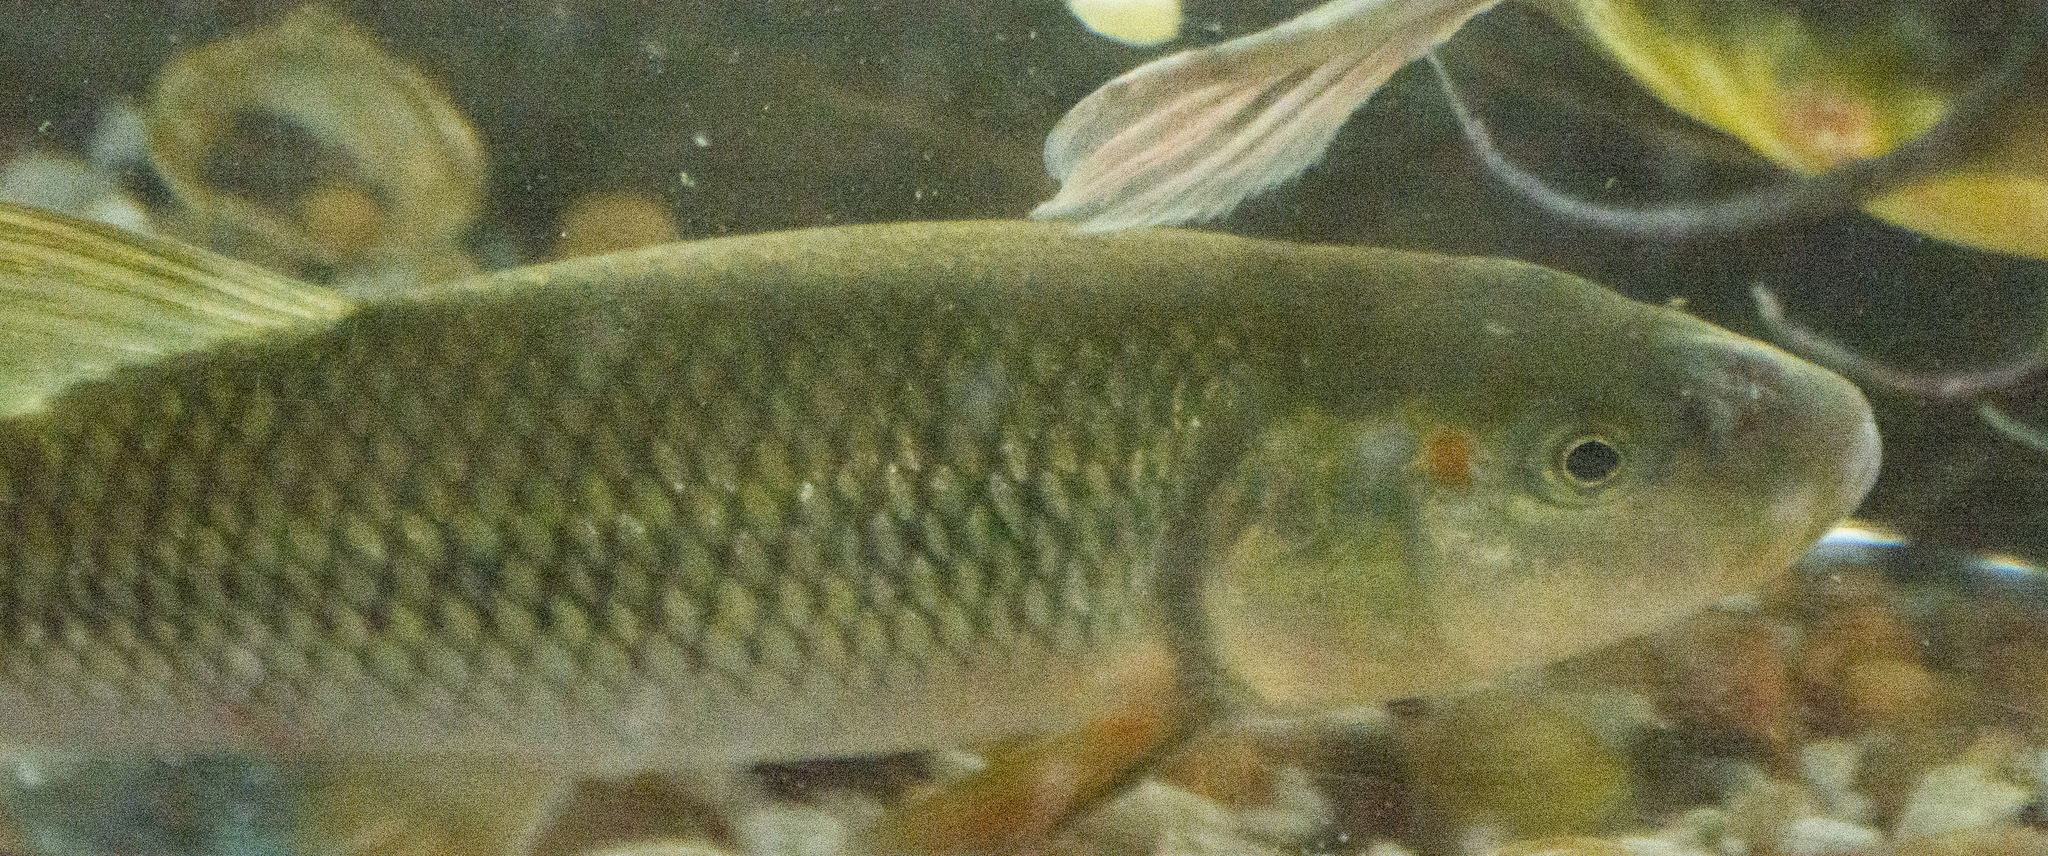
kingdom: Animalia
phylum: Chordata
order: Cypriniformes
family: Cyprinidae
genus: Nocomis
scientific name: Nocomis biguttatus
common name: Hornyhead chub
